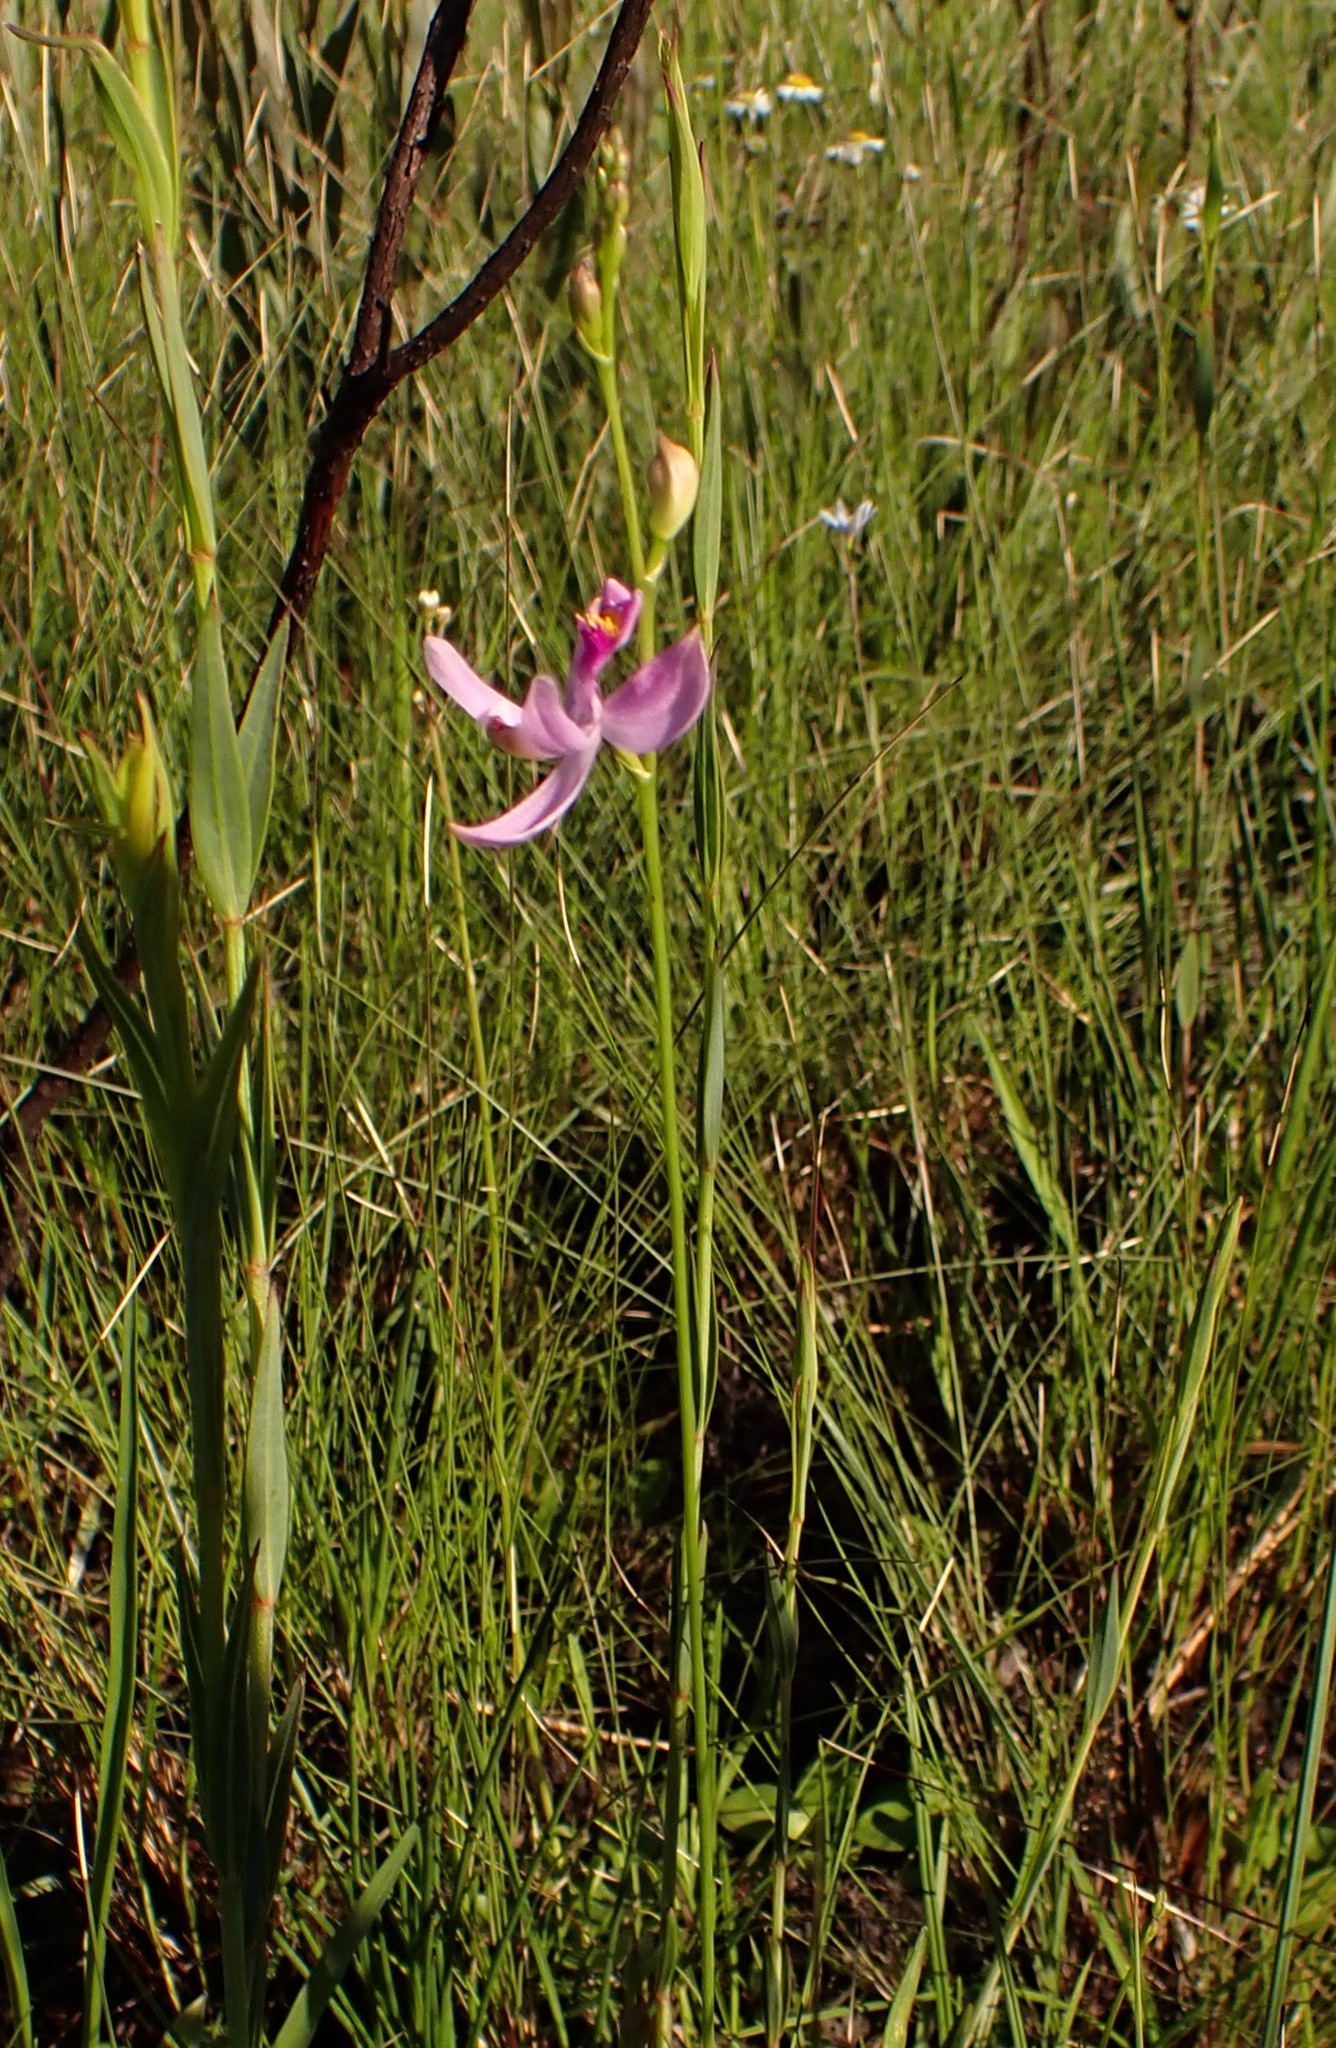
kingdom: Plantae
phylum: Tracheophyta
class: Liliopsida
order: Asparagales
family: Orchidaceae
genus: Calopogon
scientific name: Calopogon pallidus
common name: Pale grasspink
